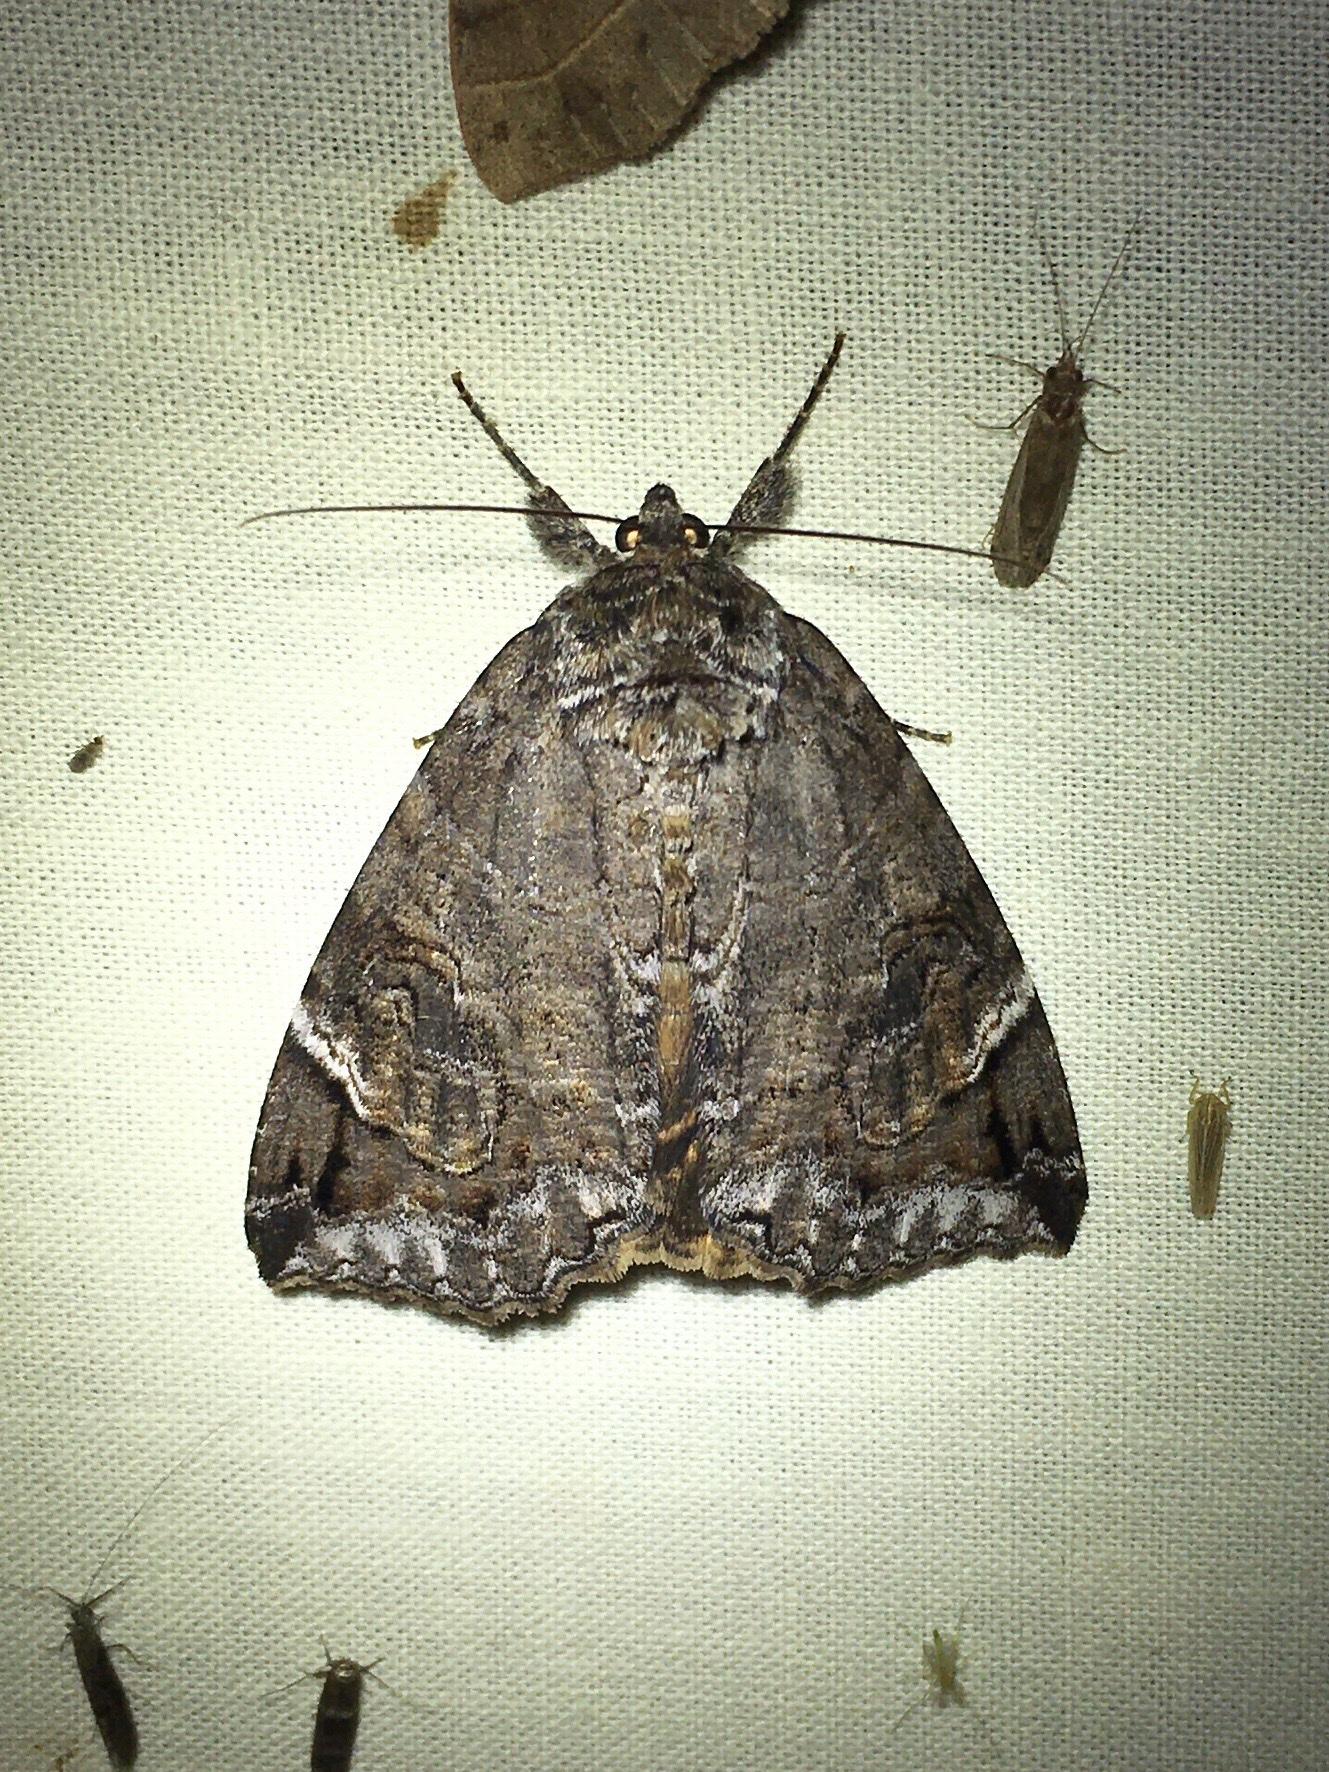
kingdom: Animalia
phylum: Arthropoda
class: Insecta
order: Lepidoptera
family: Erebidae
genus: Euparthenos
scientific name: Euparthenos nubilis
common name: Locust underwing
